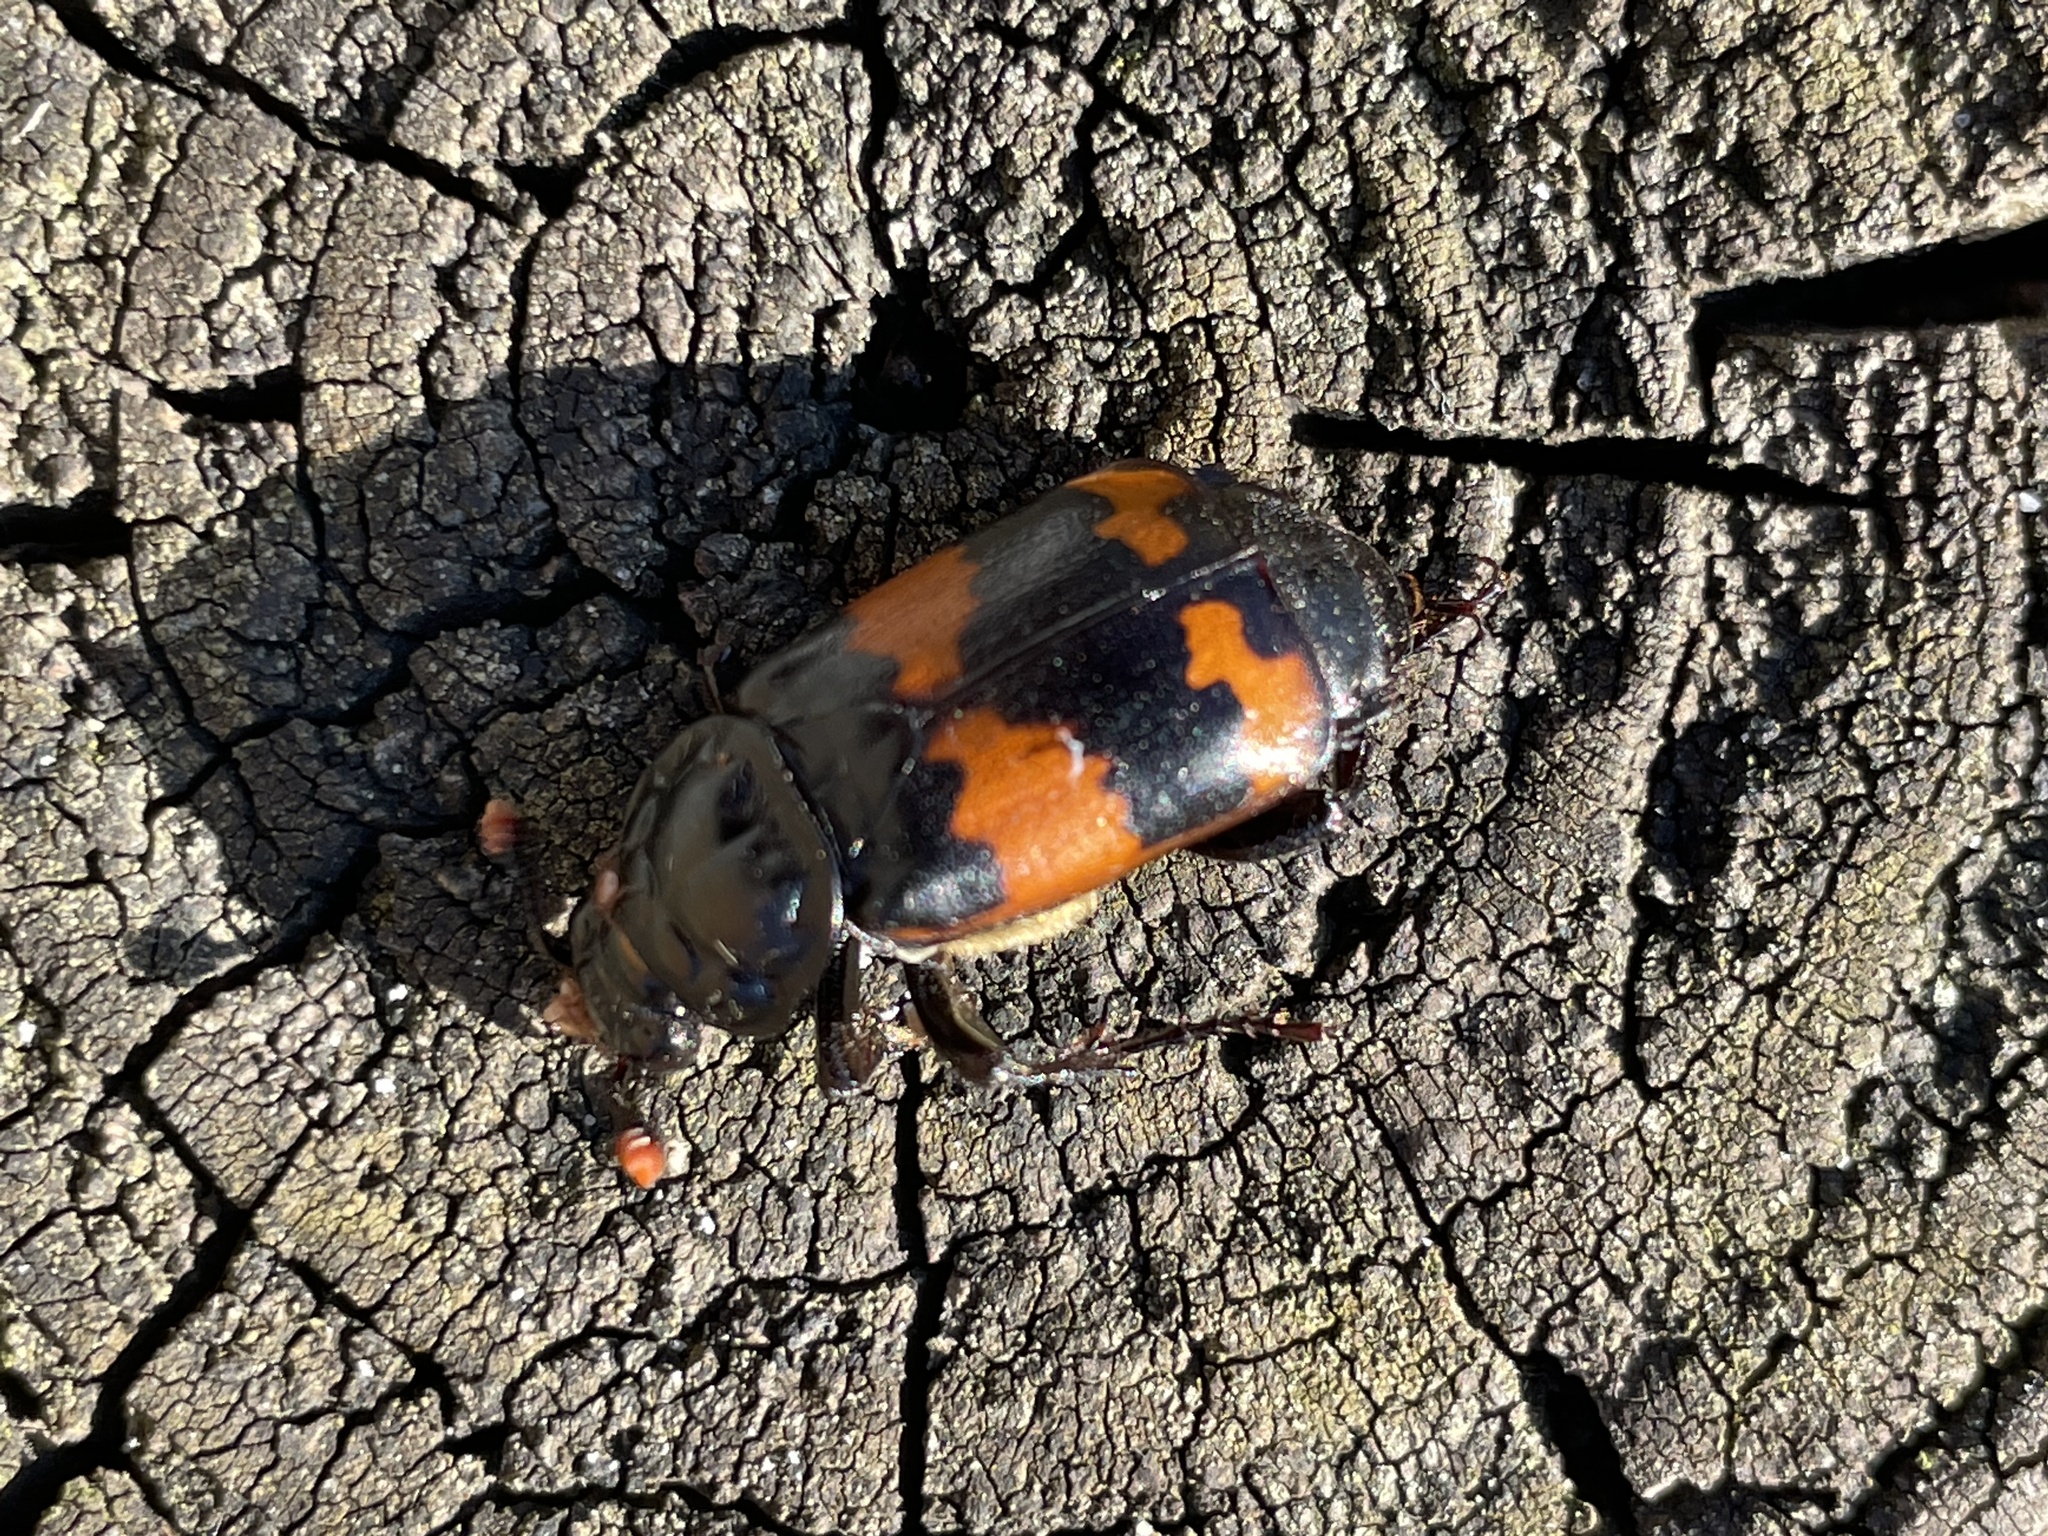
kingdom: Animalia
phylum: Arthropoda
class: Insecta
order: Coleoptera
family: Staphylinidae
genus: Nicrophorus
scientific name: Nicrophorus investigator
